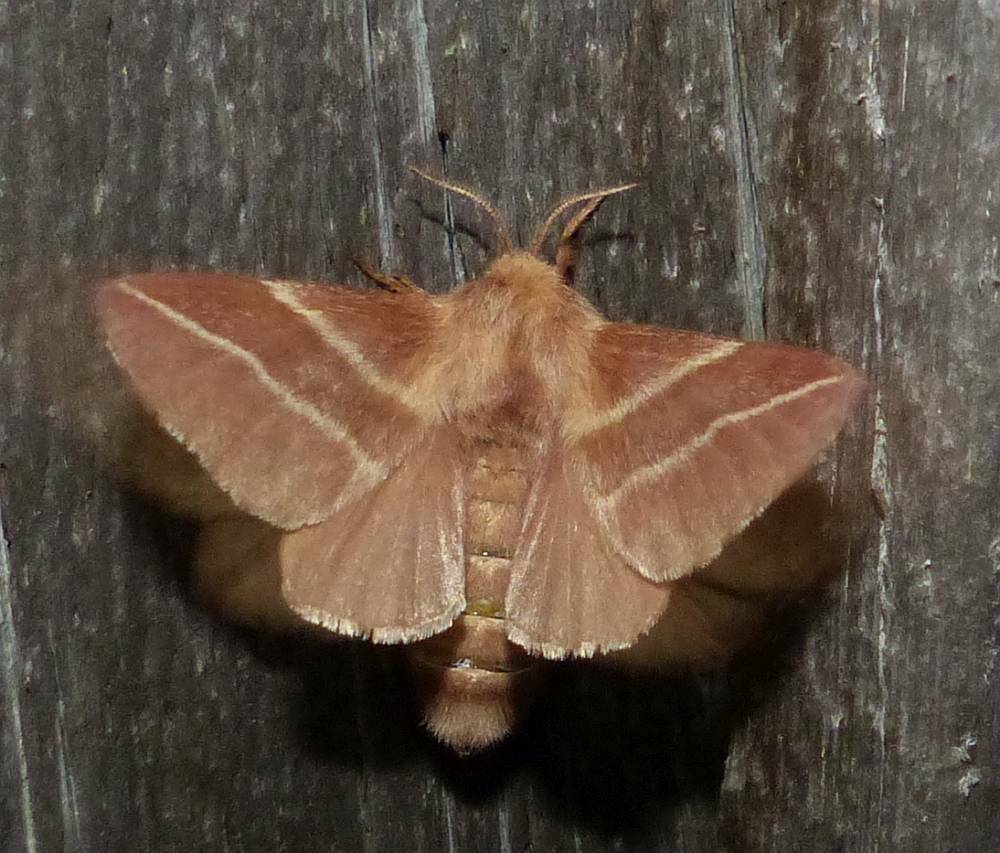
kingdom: Animalia
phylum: Arthropoda
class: Insecta
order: Lepidoptera
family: Lasiocampidae
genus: Malacosoma
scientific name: Malacosoma americana
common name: Eastern tent caterpillar moth
